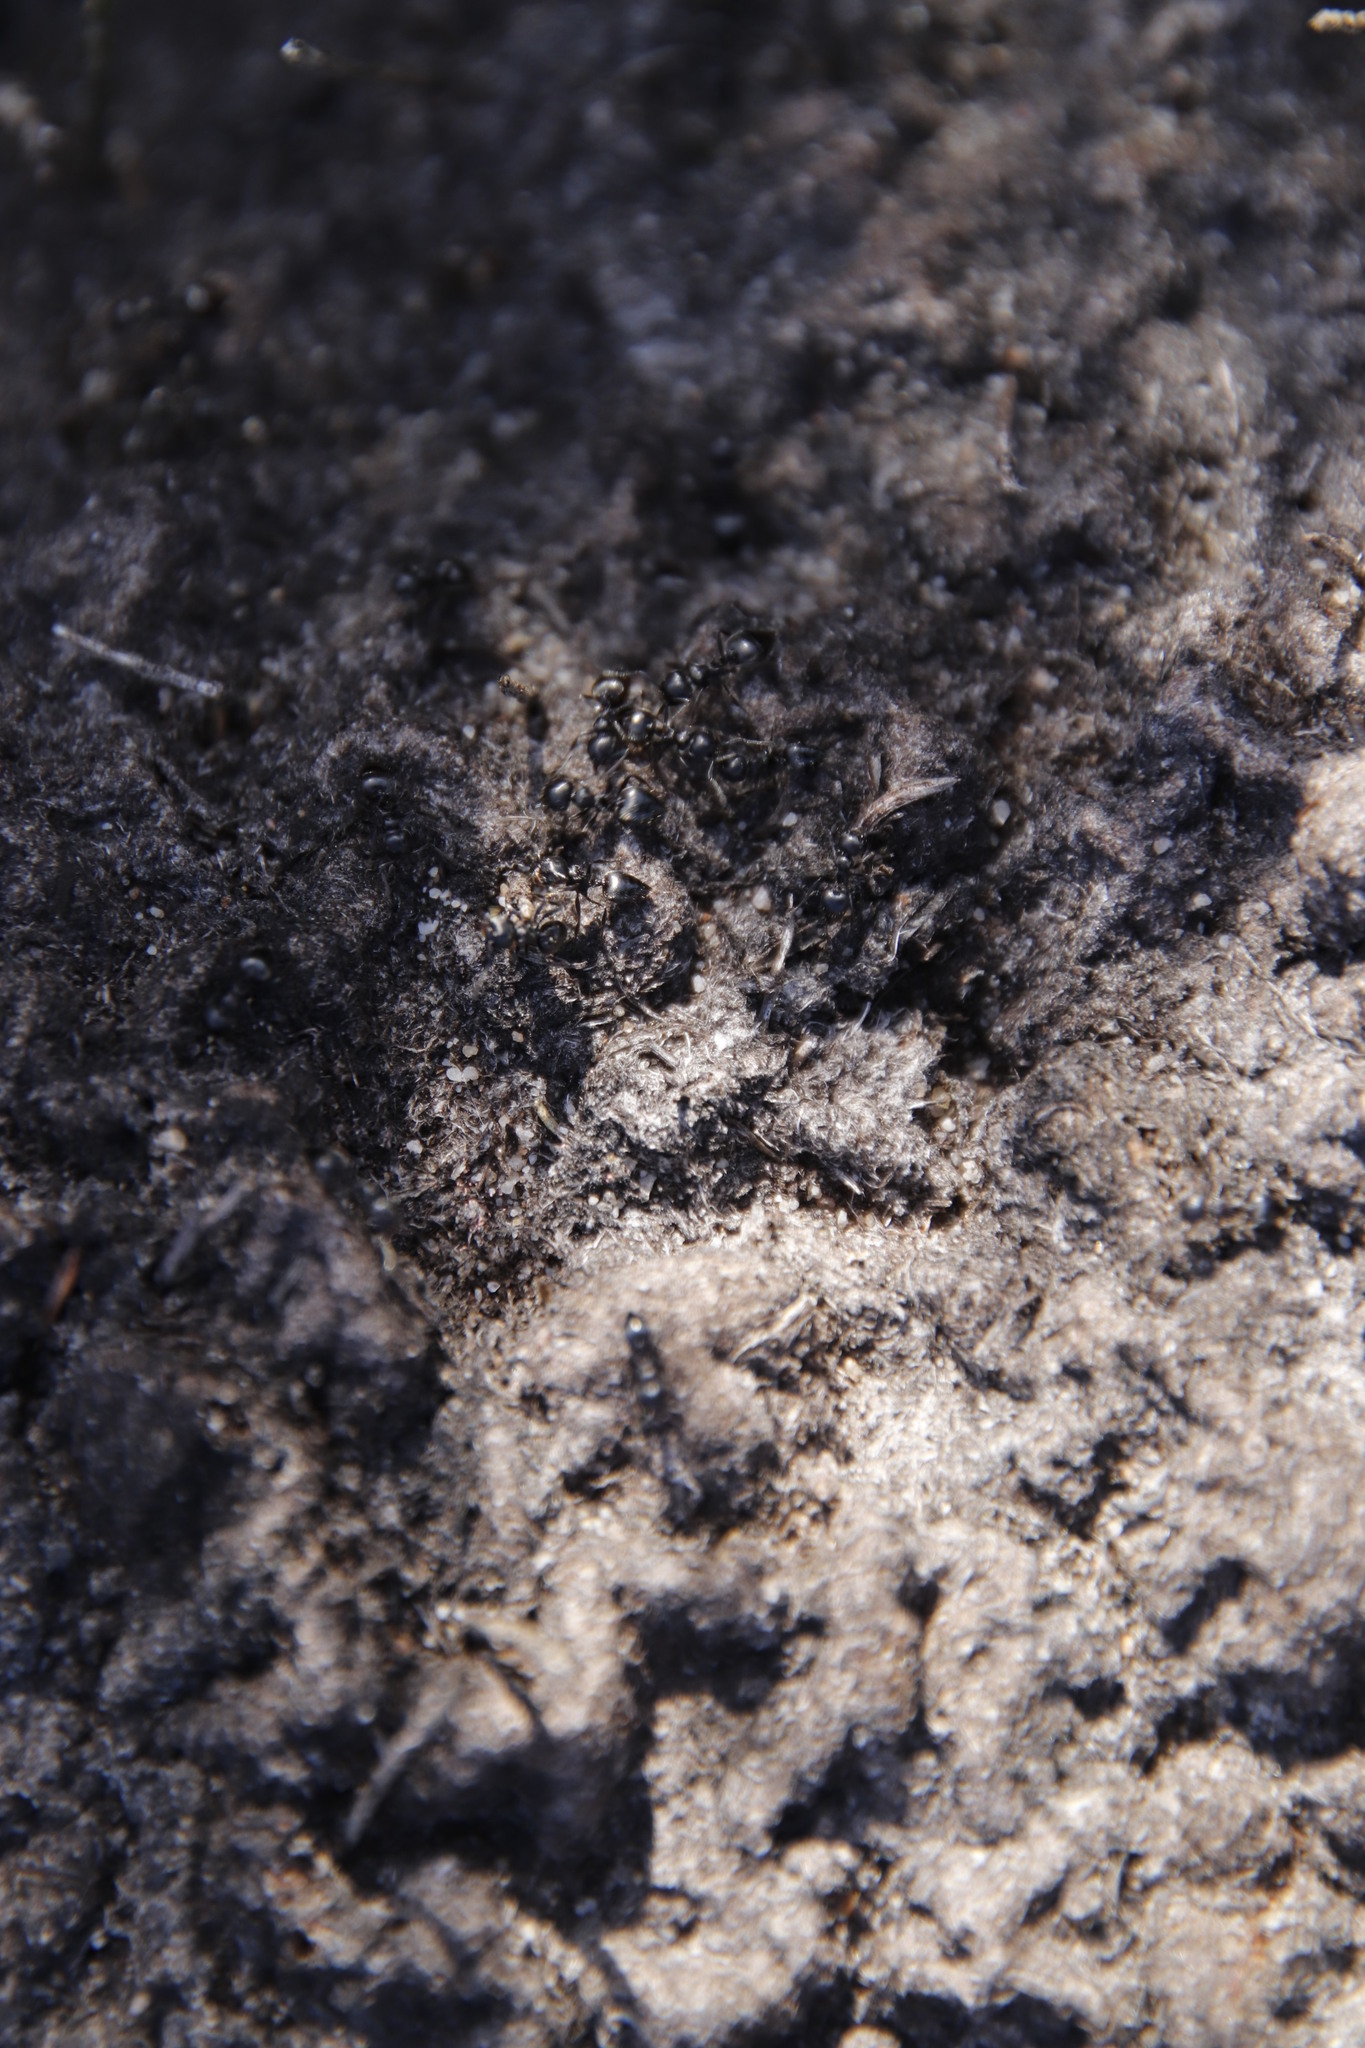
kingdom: Animalia
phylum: Arthropoda
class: Insecta
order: Hymenoptera
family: Formicidae
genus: Crematogaster
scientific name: Crematogaster peringueyi
